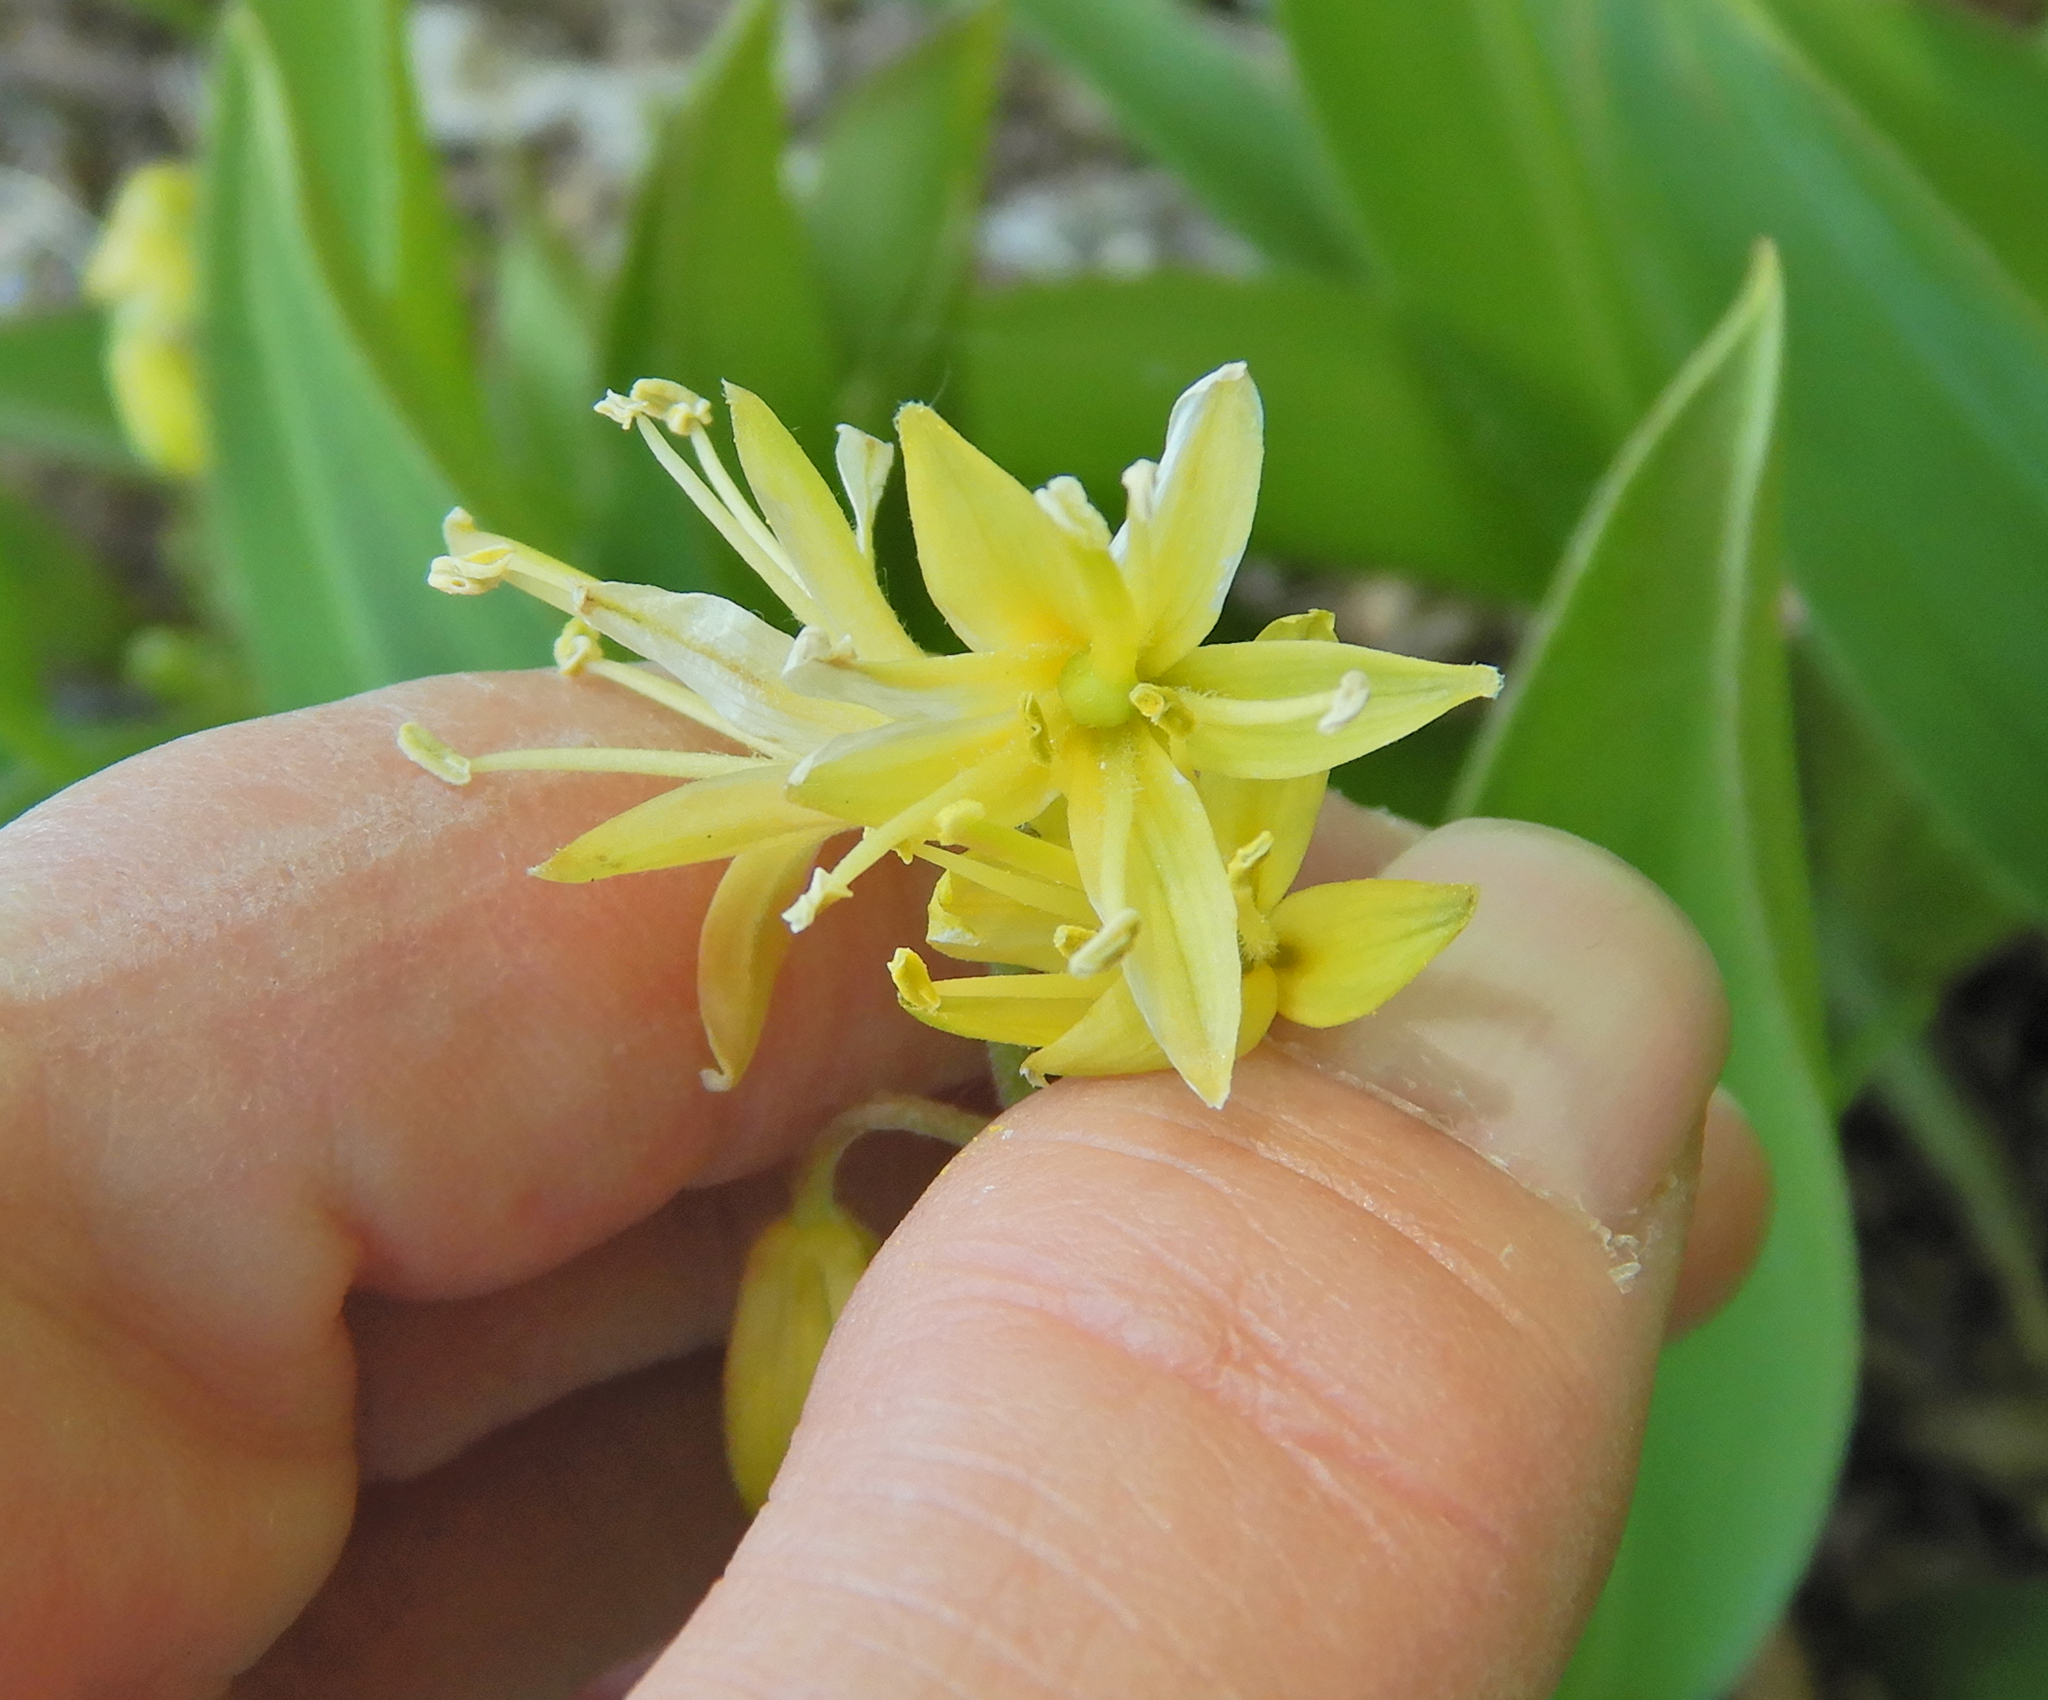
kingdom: Plantae
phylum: Tracheophyta
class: Liliopsida
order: Liliales
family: Liliaceae
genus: Clintonia
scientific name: Clintonia borealis
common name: Yellow clintonia
